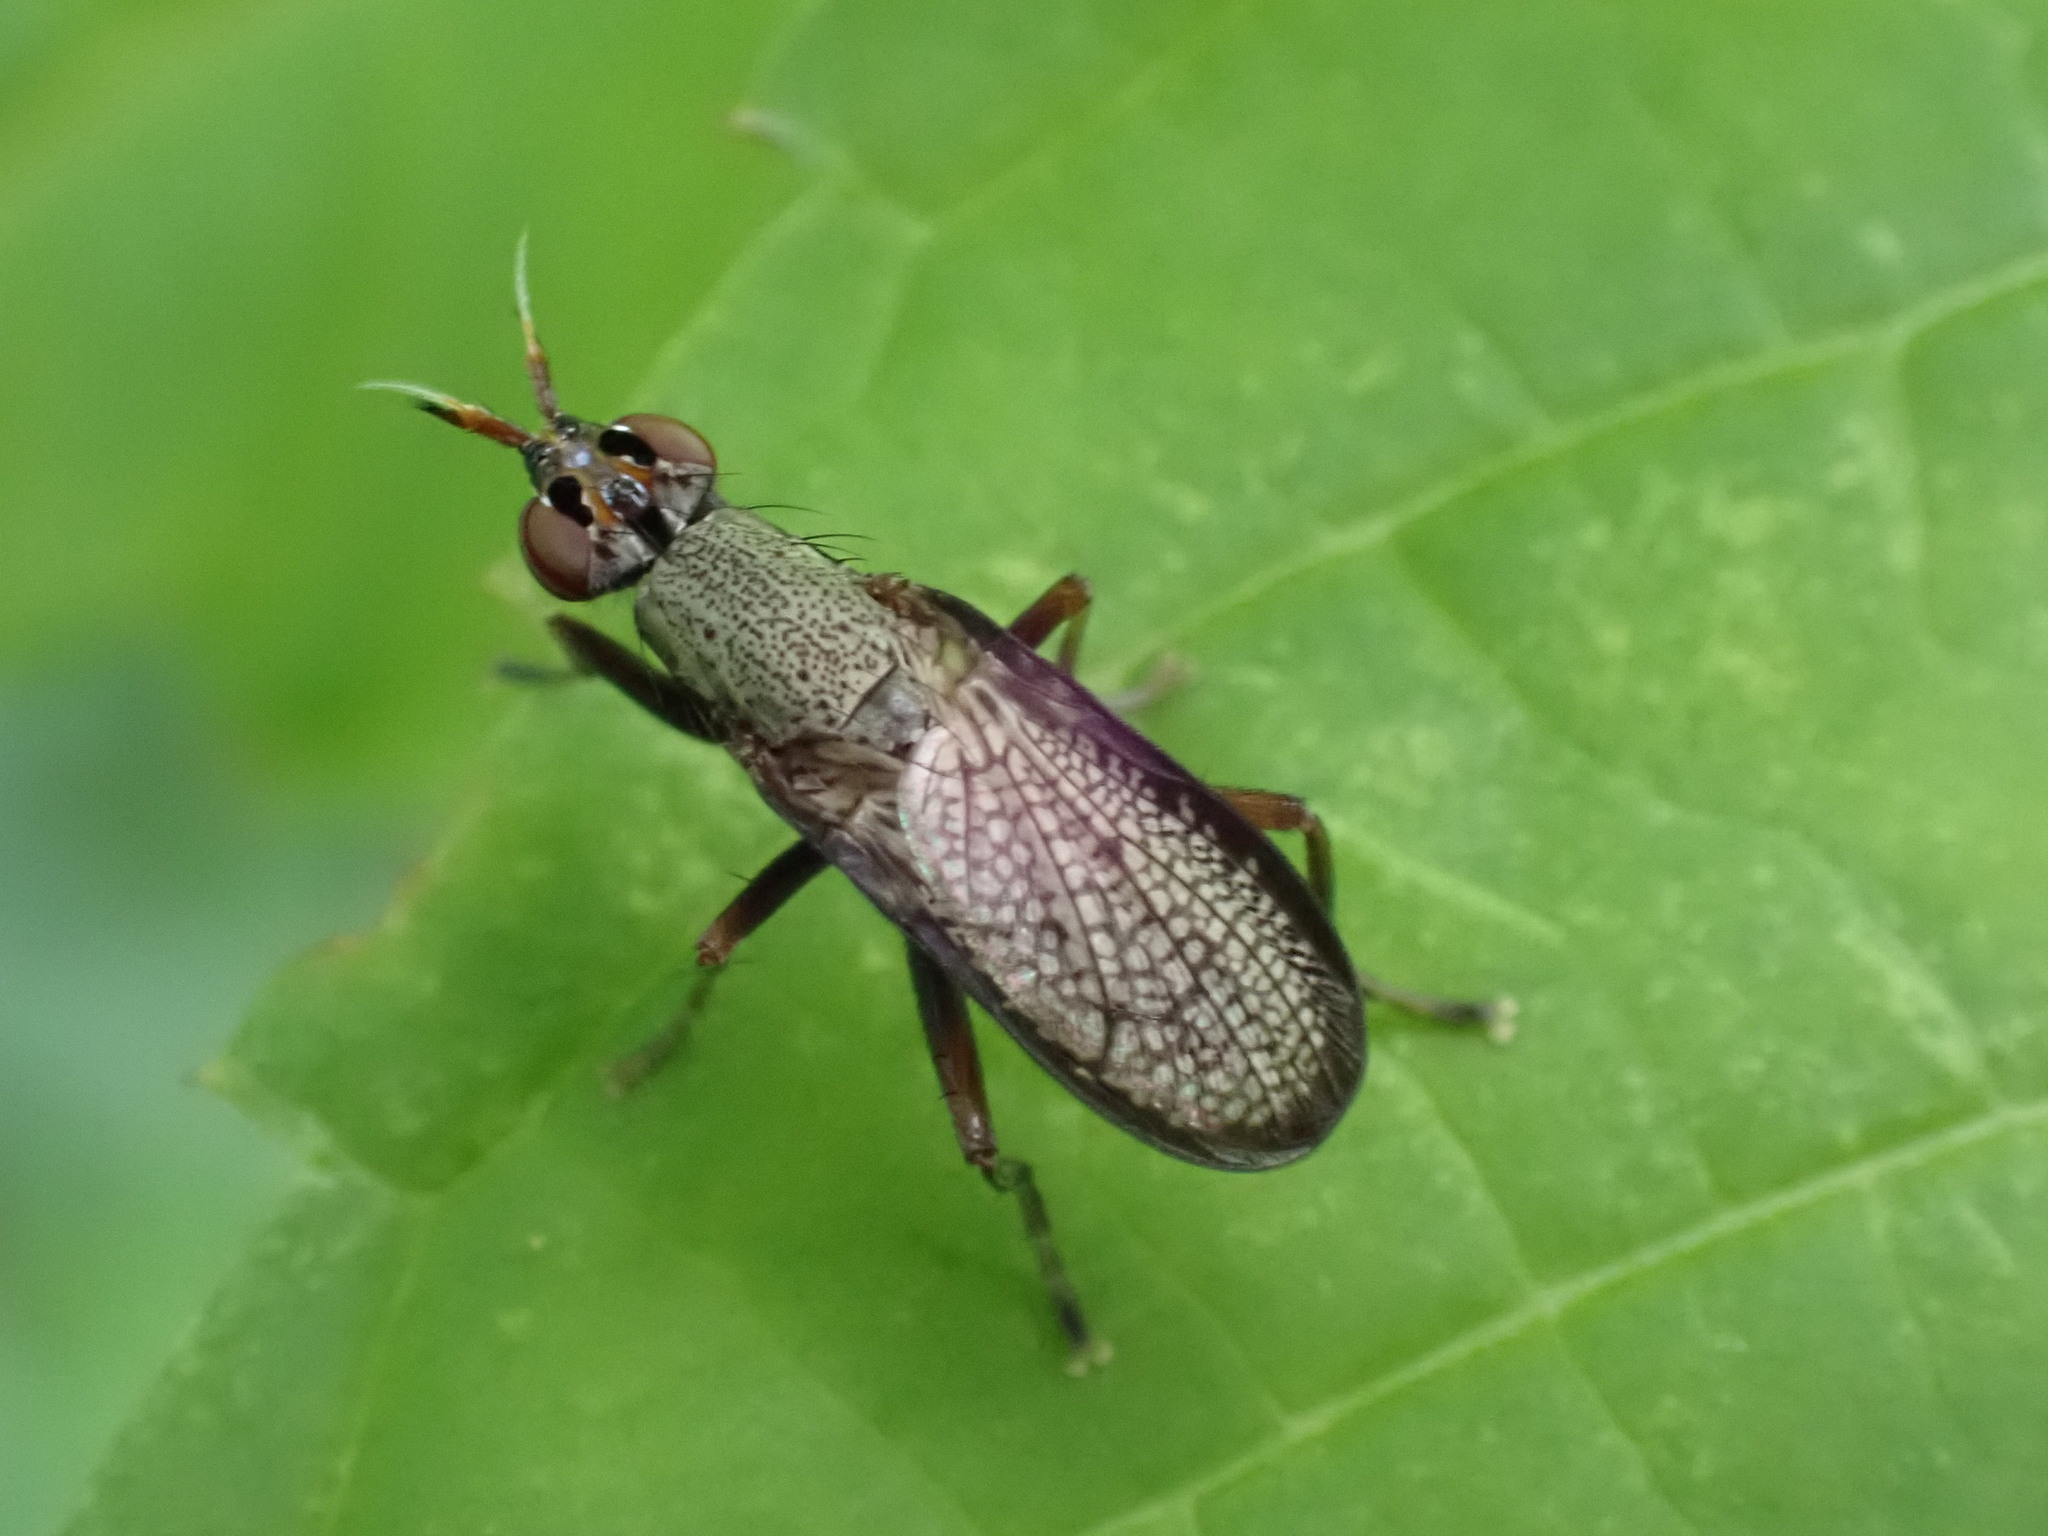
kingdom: Animalia
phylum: Arthropoda
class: Insecta
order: Diptera
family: Sciomyzidae
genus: Coremacera
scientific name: Coremacera marginata
